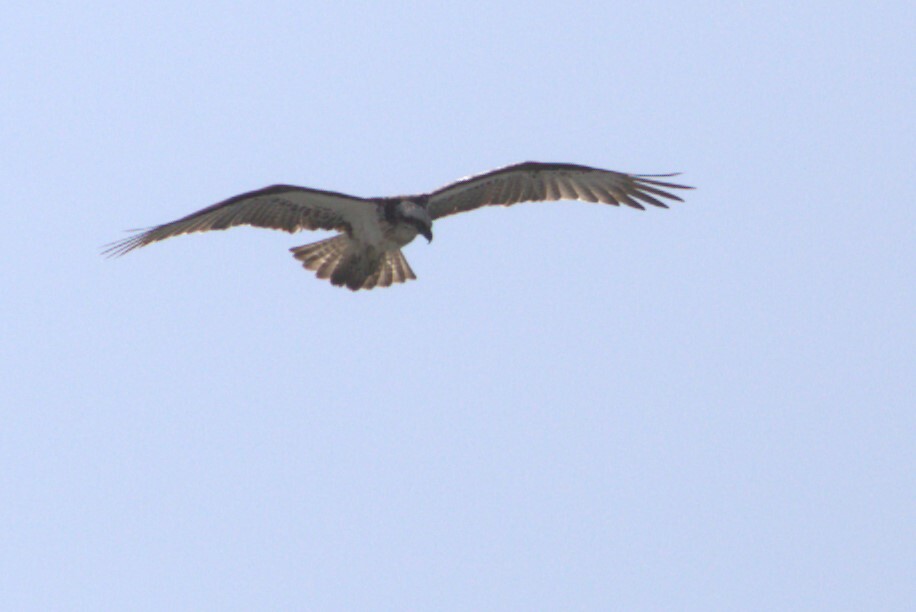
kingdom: Animalia
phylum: Chordata
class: Aves
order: Accipitriformes
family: Pandionidae
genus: Pandion
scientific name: Pandion haliaetus
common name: Osprey
